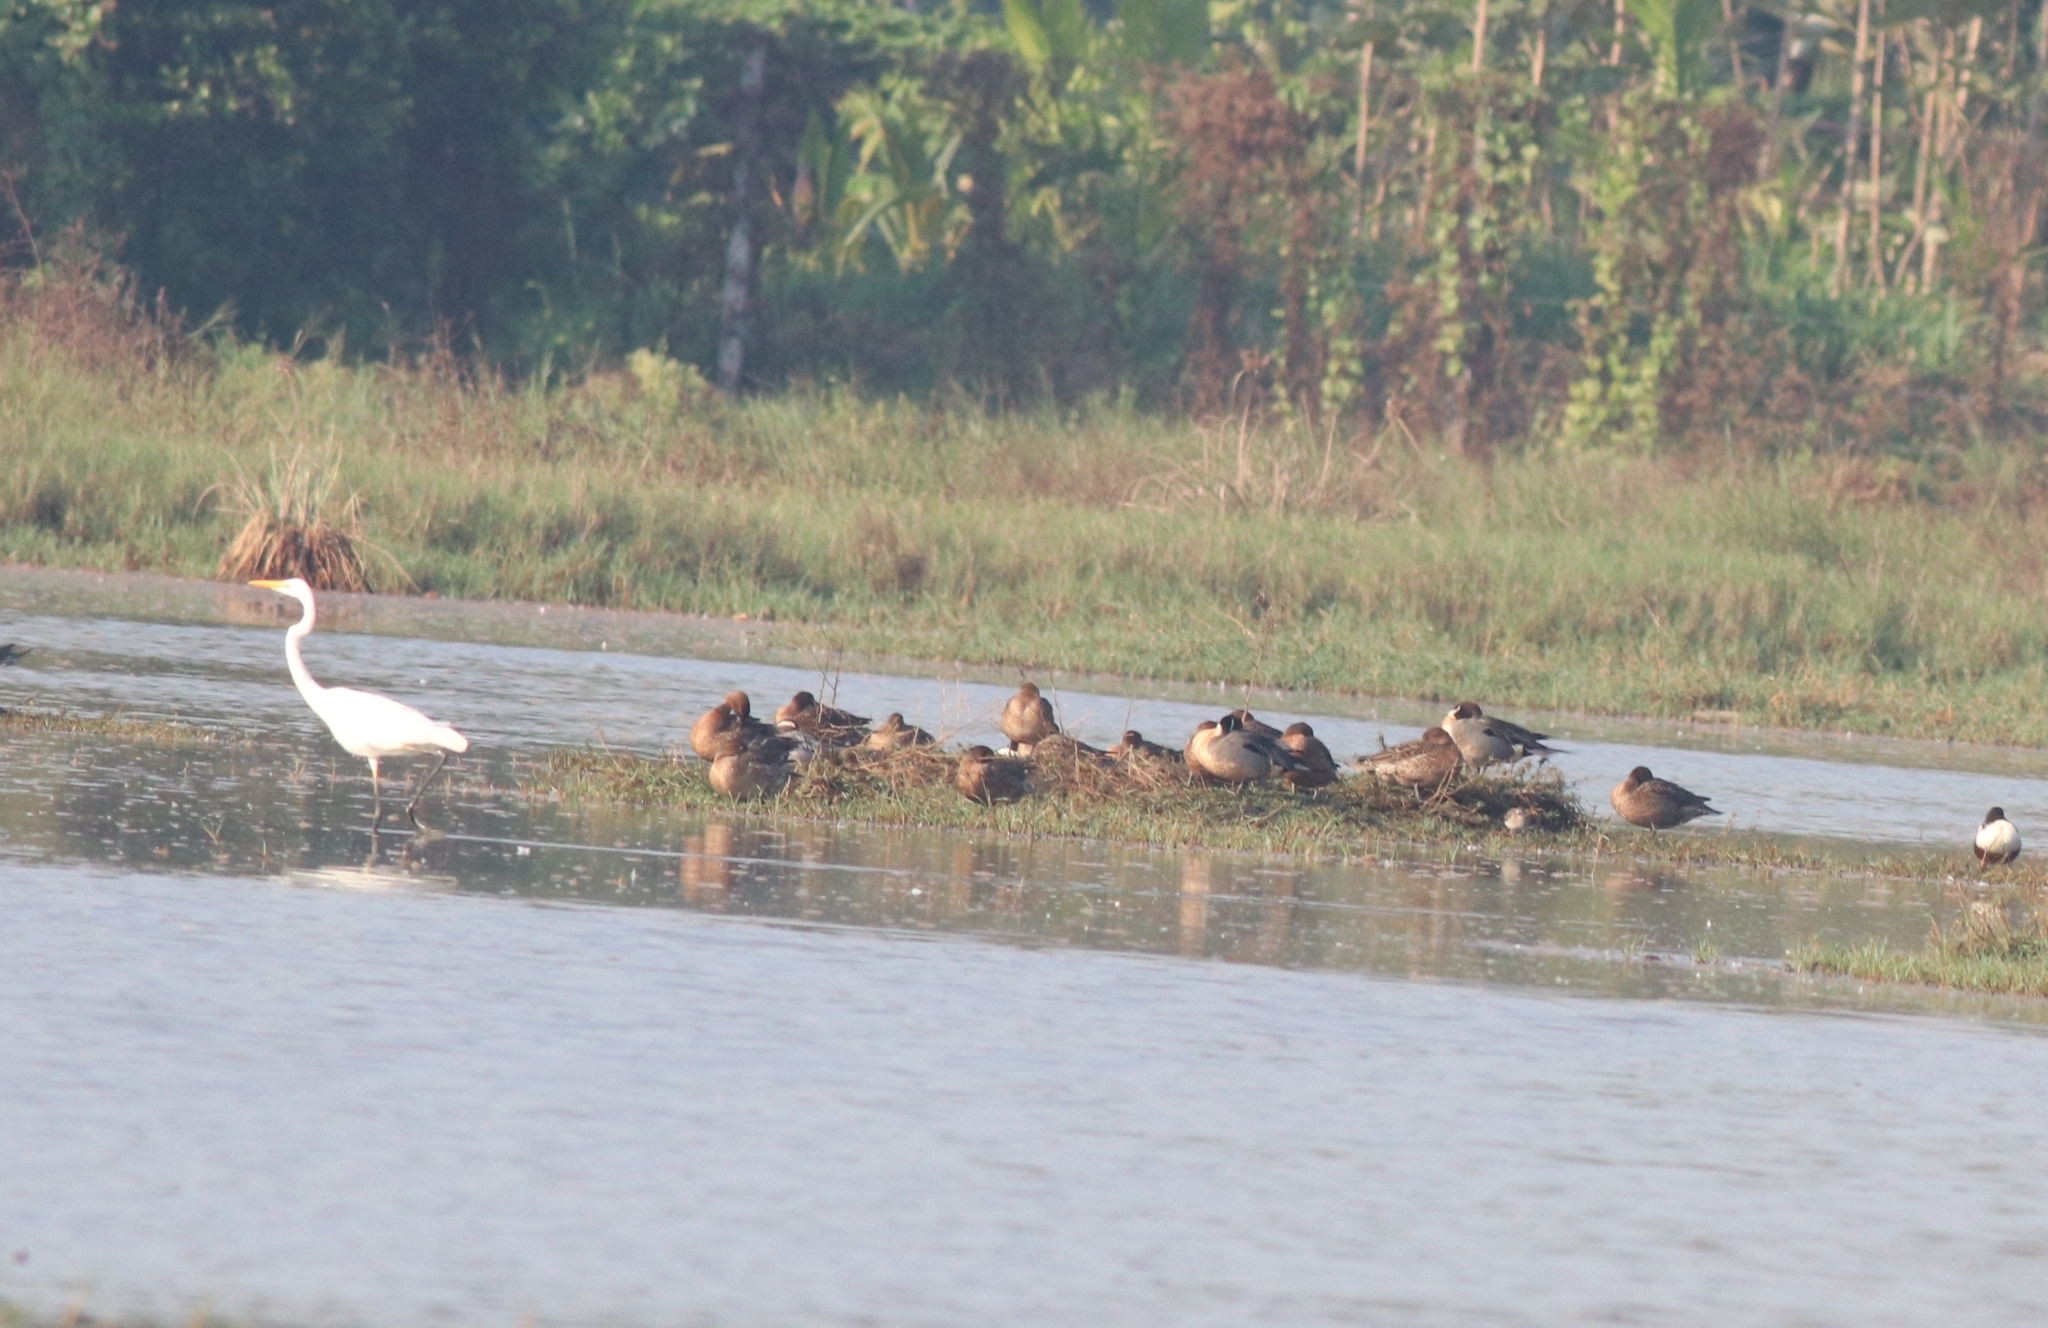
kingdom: Animalia
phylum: Chordata
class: Aves
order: Pelecaniformes
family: Ardeidae
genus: Ardea
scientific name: Ardea alba
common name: Great egret
